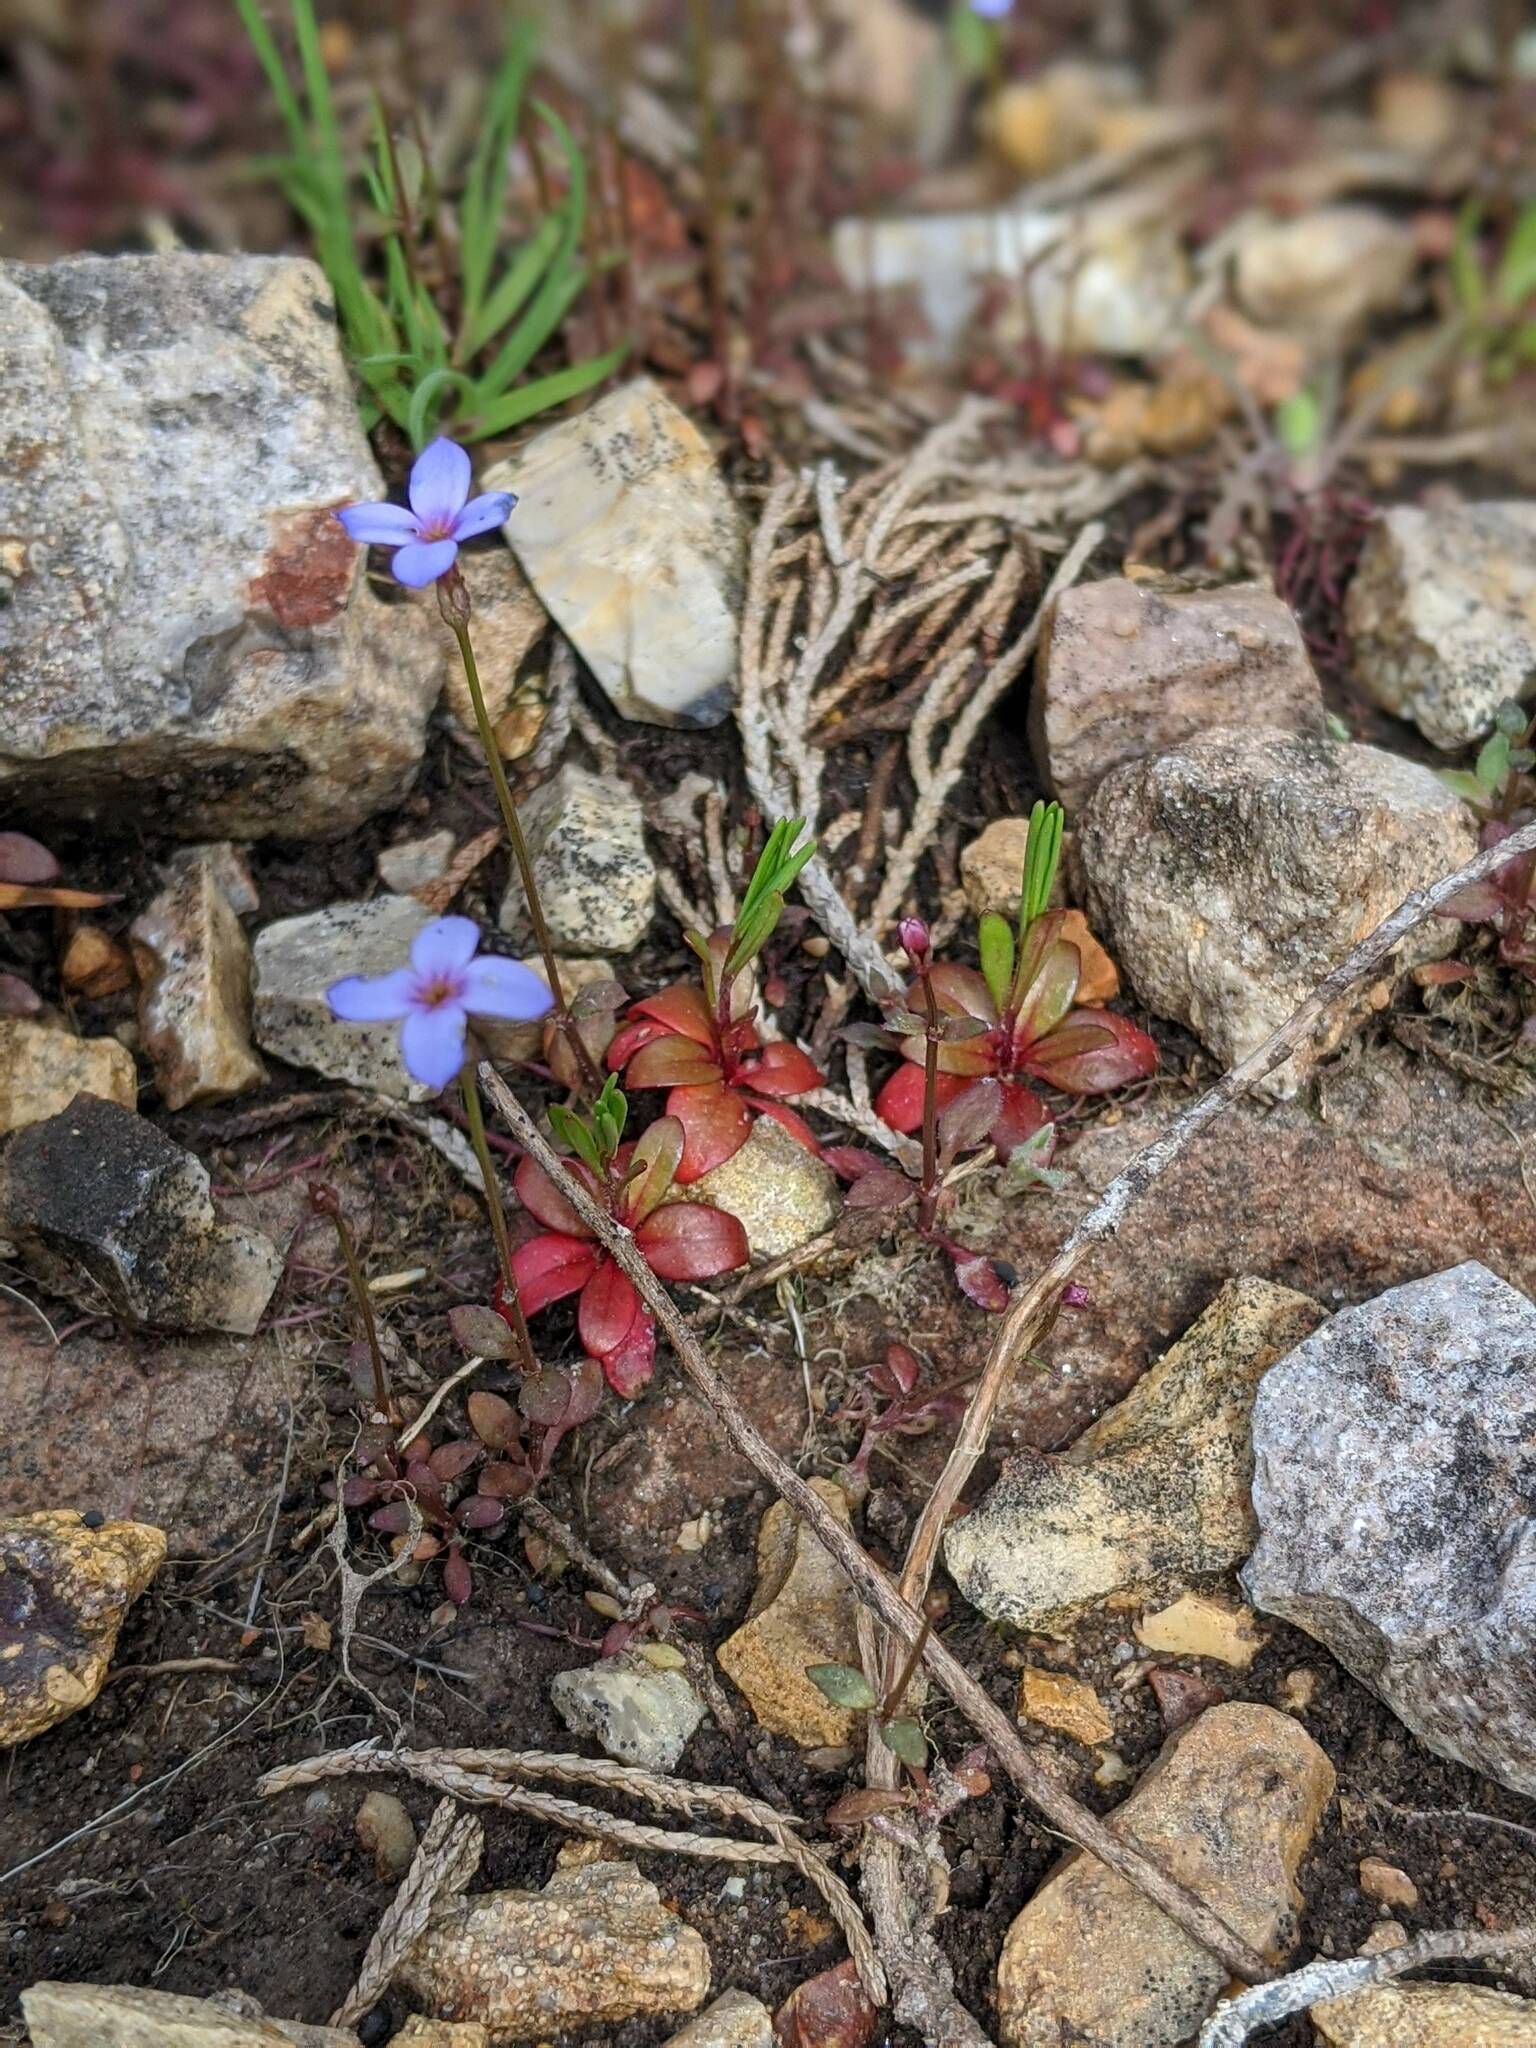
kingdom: Plantae
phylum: Tracheophyta
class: Magnoliopsida
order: Gentianales
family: Rubiaceae
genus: Houstonia
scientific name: Houstonia pusilla
